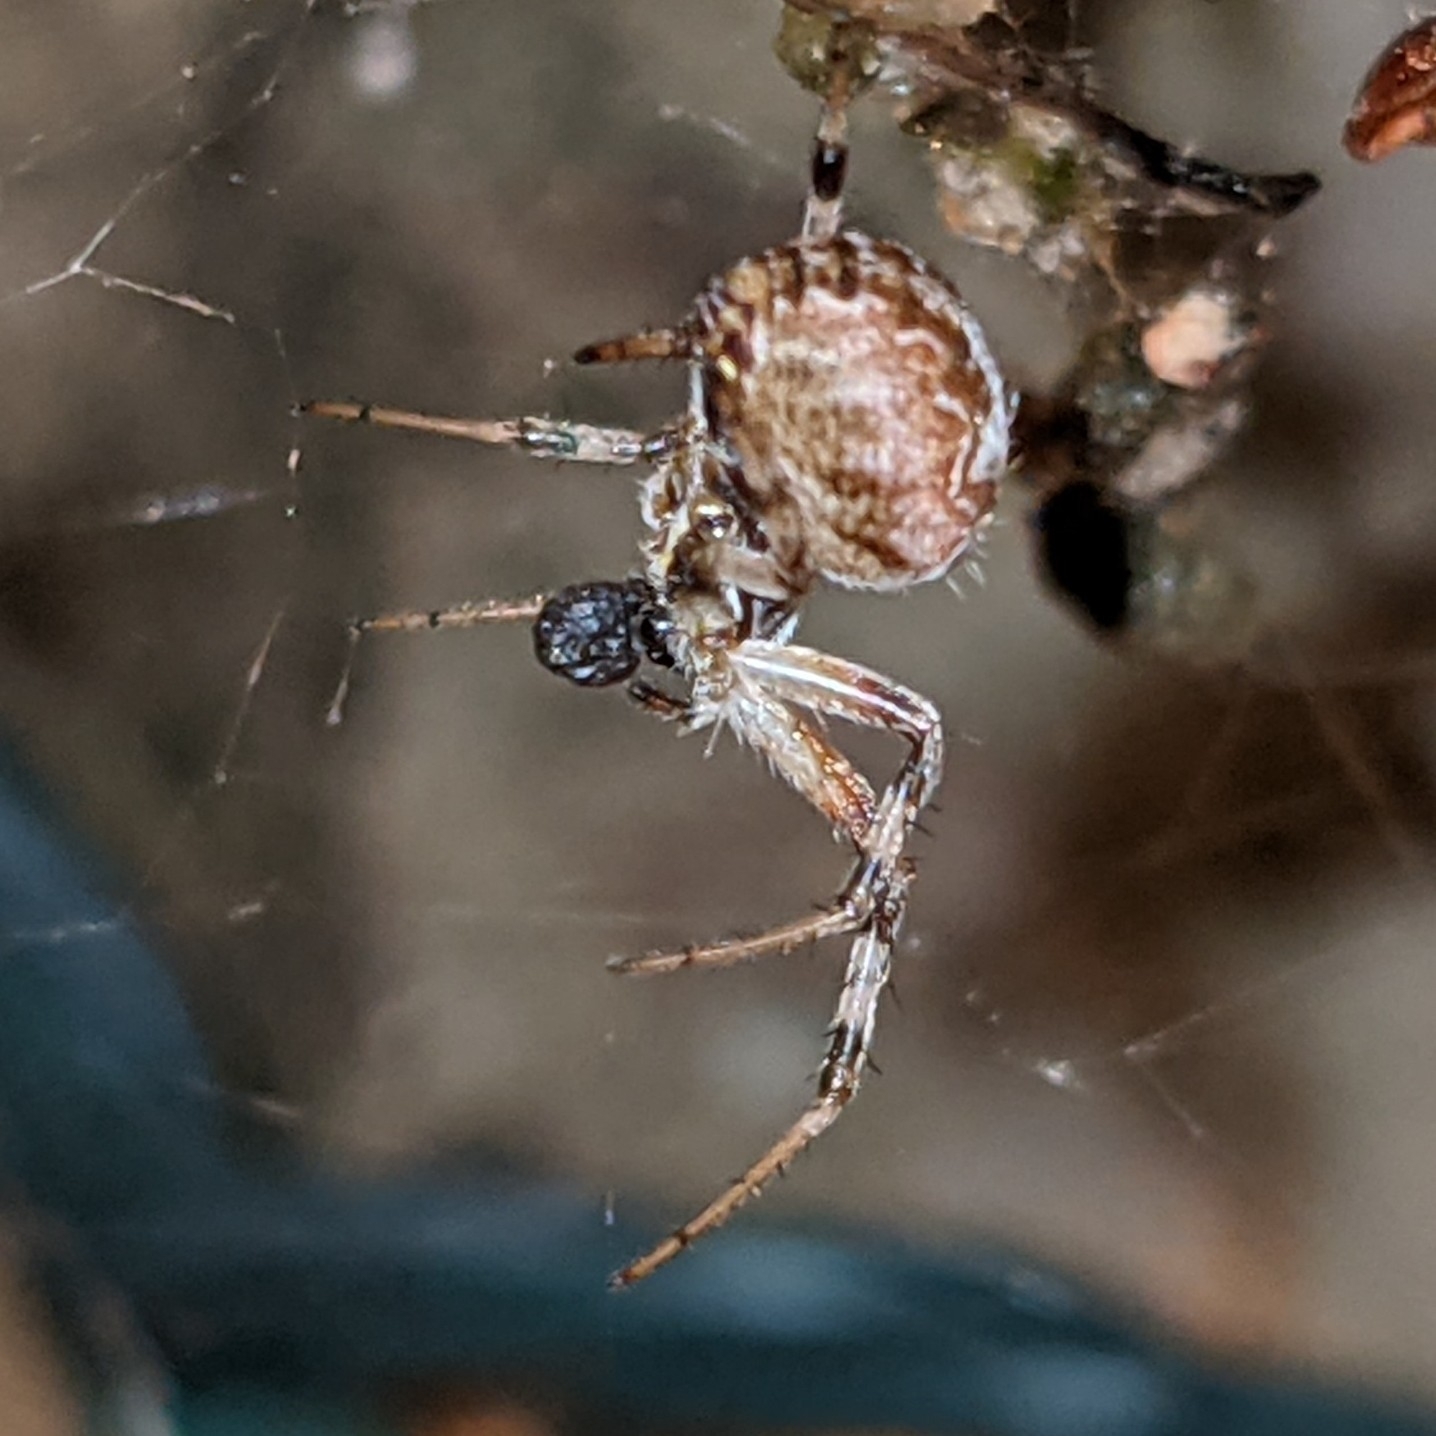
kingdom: Animalia
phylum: Arthropoda
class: Arachnida
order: Araneae
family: Araneidae
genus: Metepeira
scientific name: Metepeira labyrinthea
